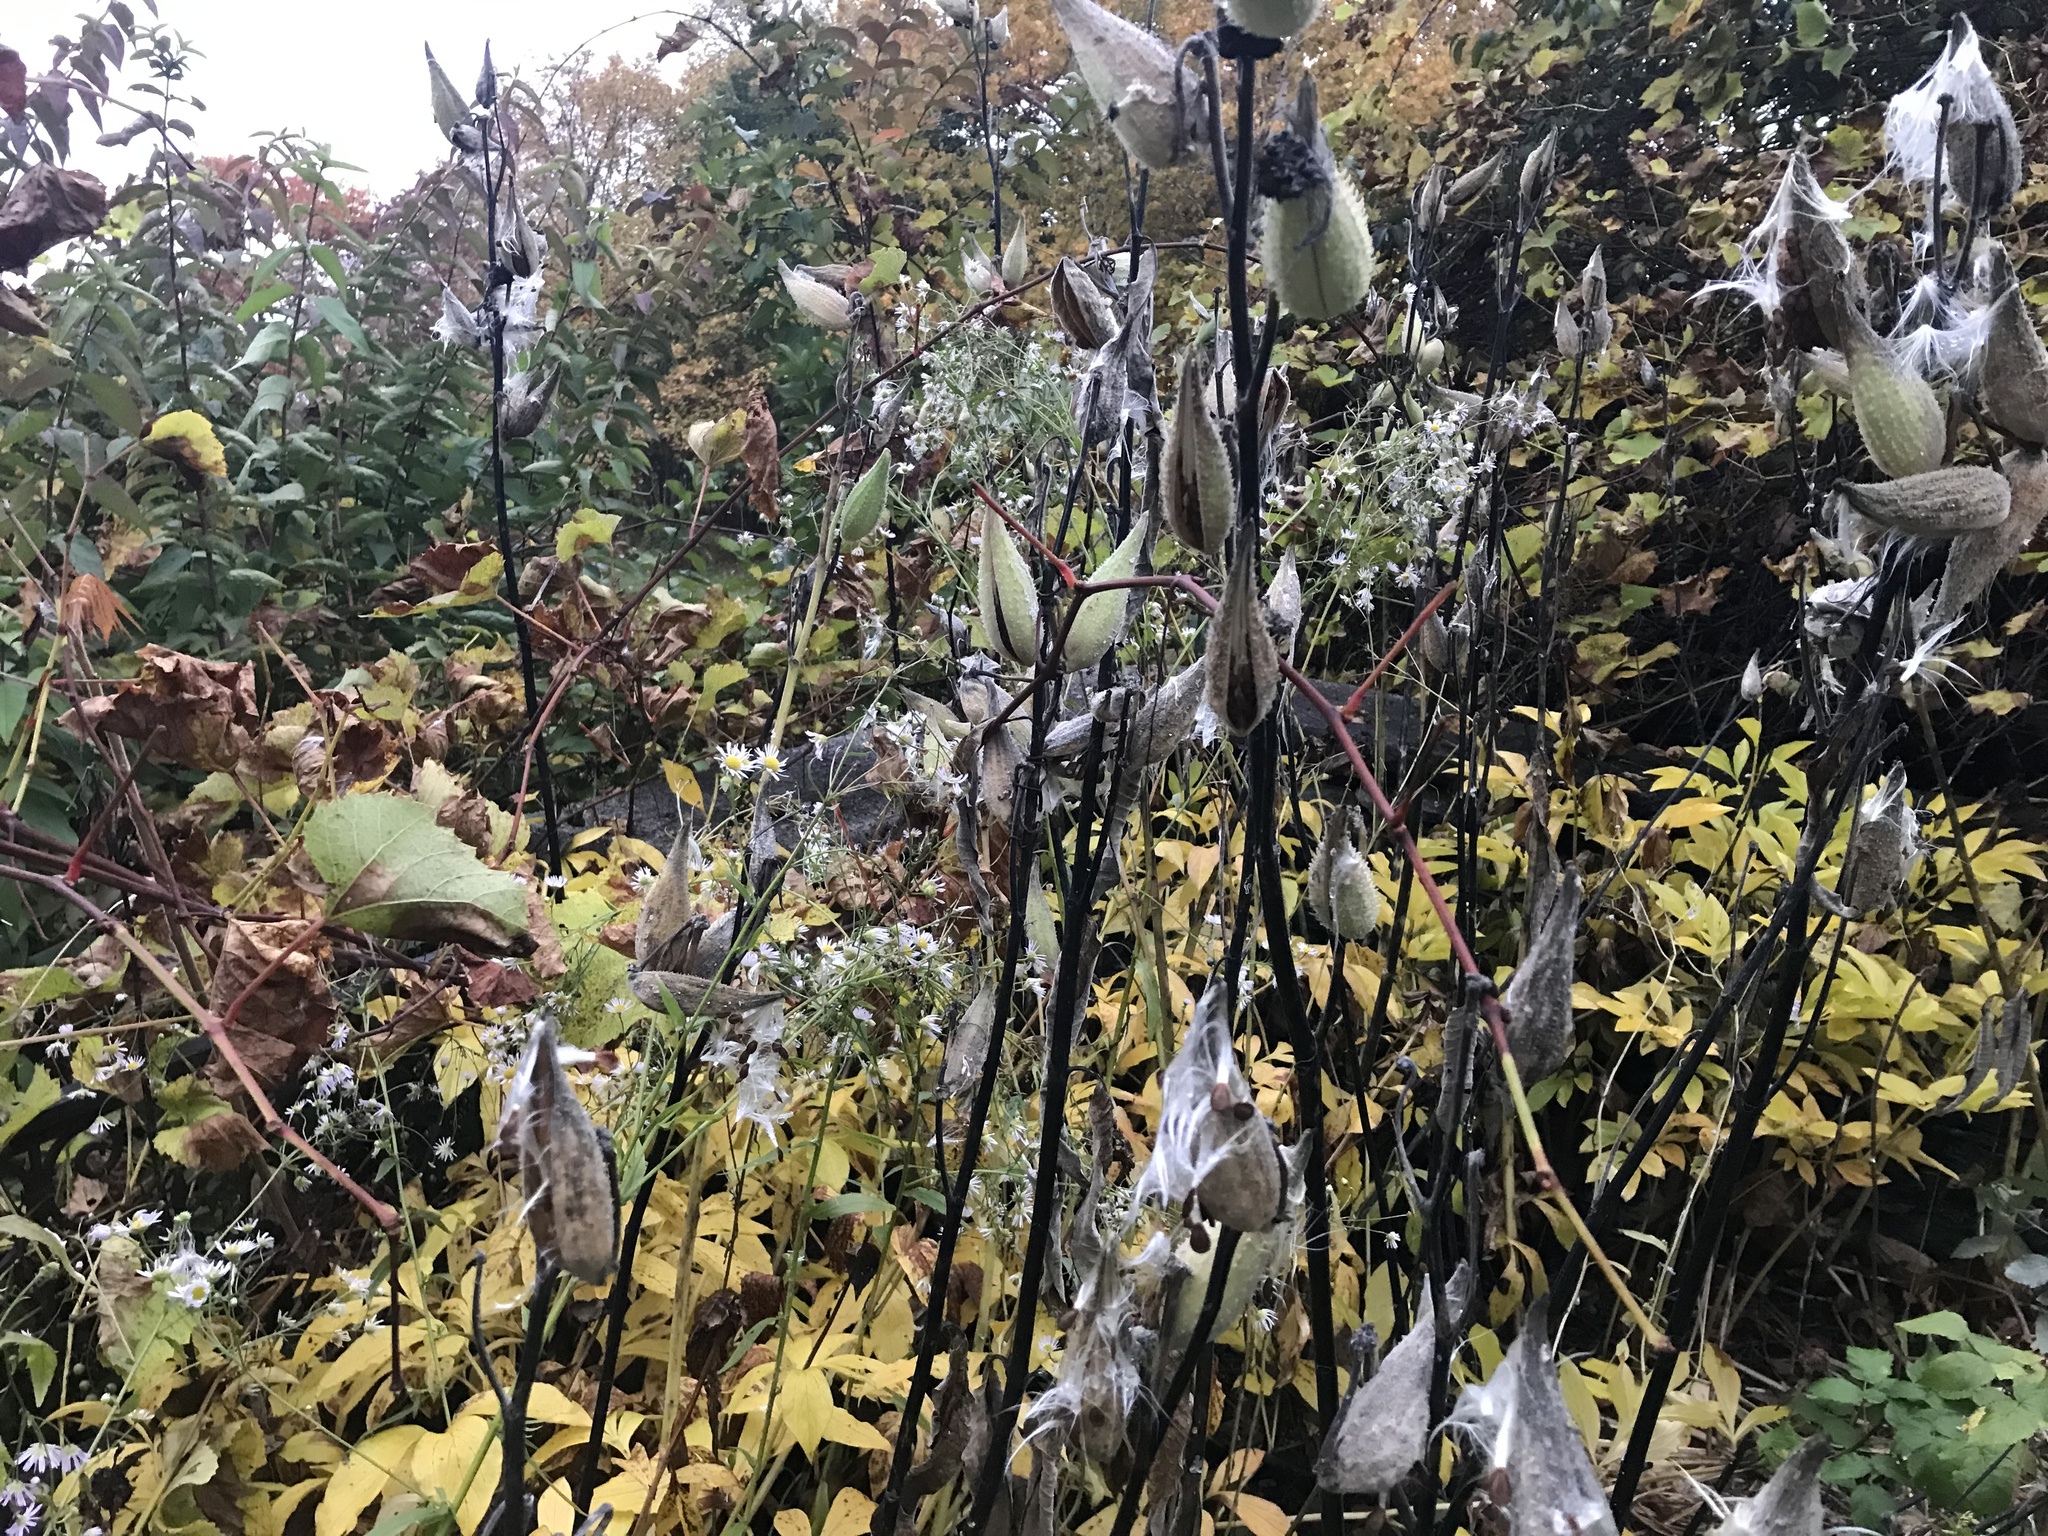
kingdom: Plantae
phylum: Tracheophyta
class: Magnoliopsida
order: Gentianales
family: Apocynaceae
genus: Asclepias
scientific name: Asclepias syriaca
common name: Common milkweed
